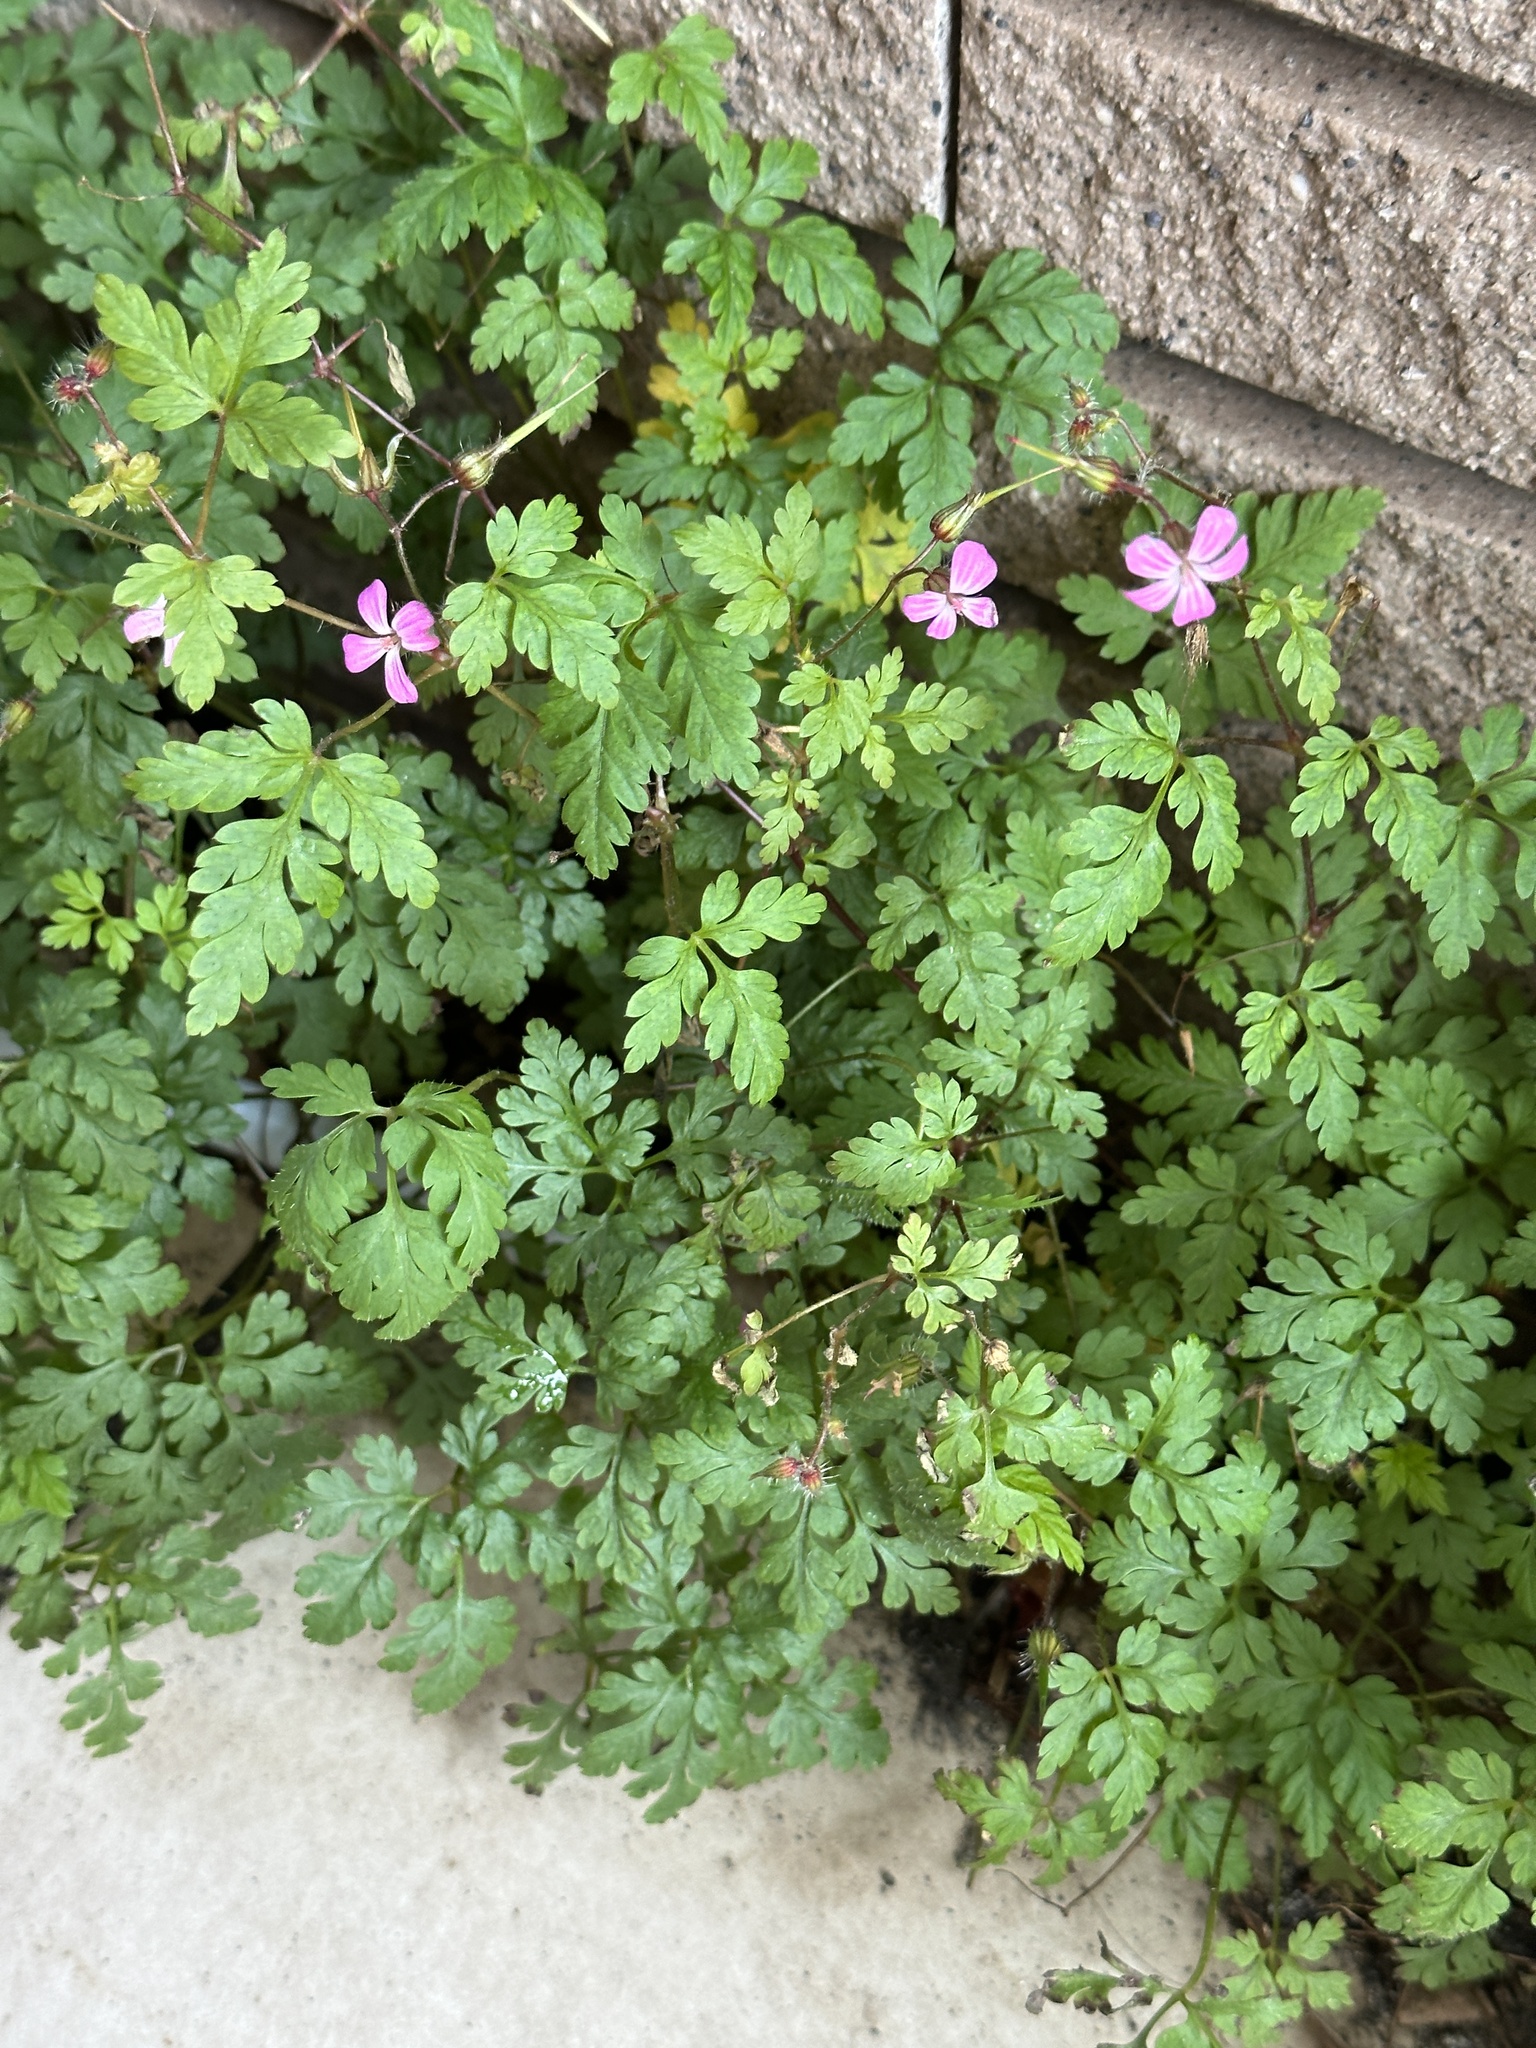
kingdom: Plantae
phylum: Tracheophyta
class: Magnoliopsida
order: Geraniales
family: Geraniaceae
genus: Geranium
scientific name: Geranium robertianum
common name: Herb-robert
